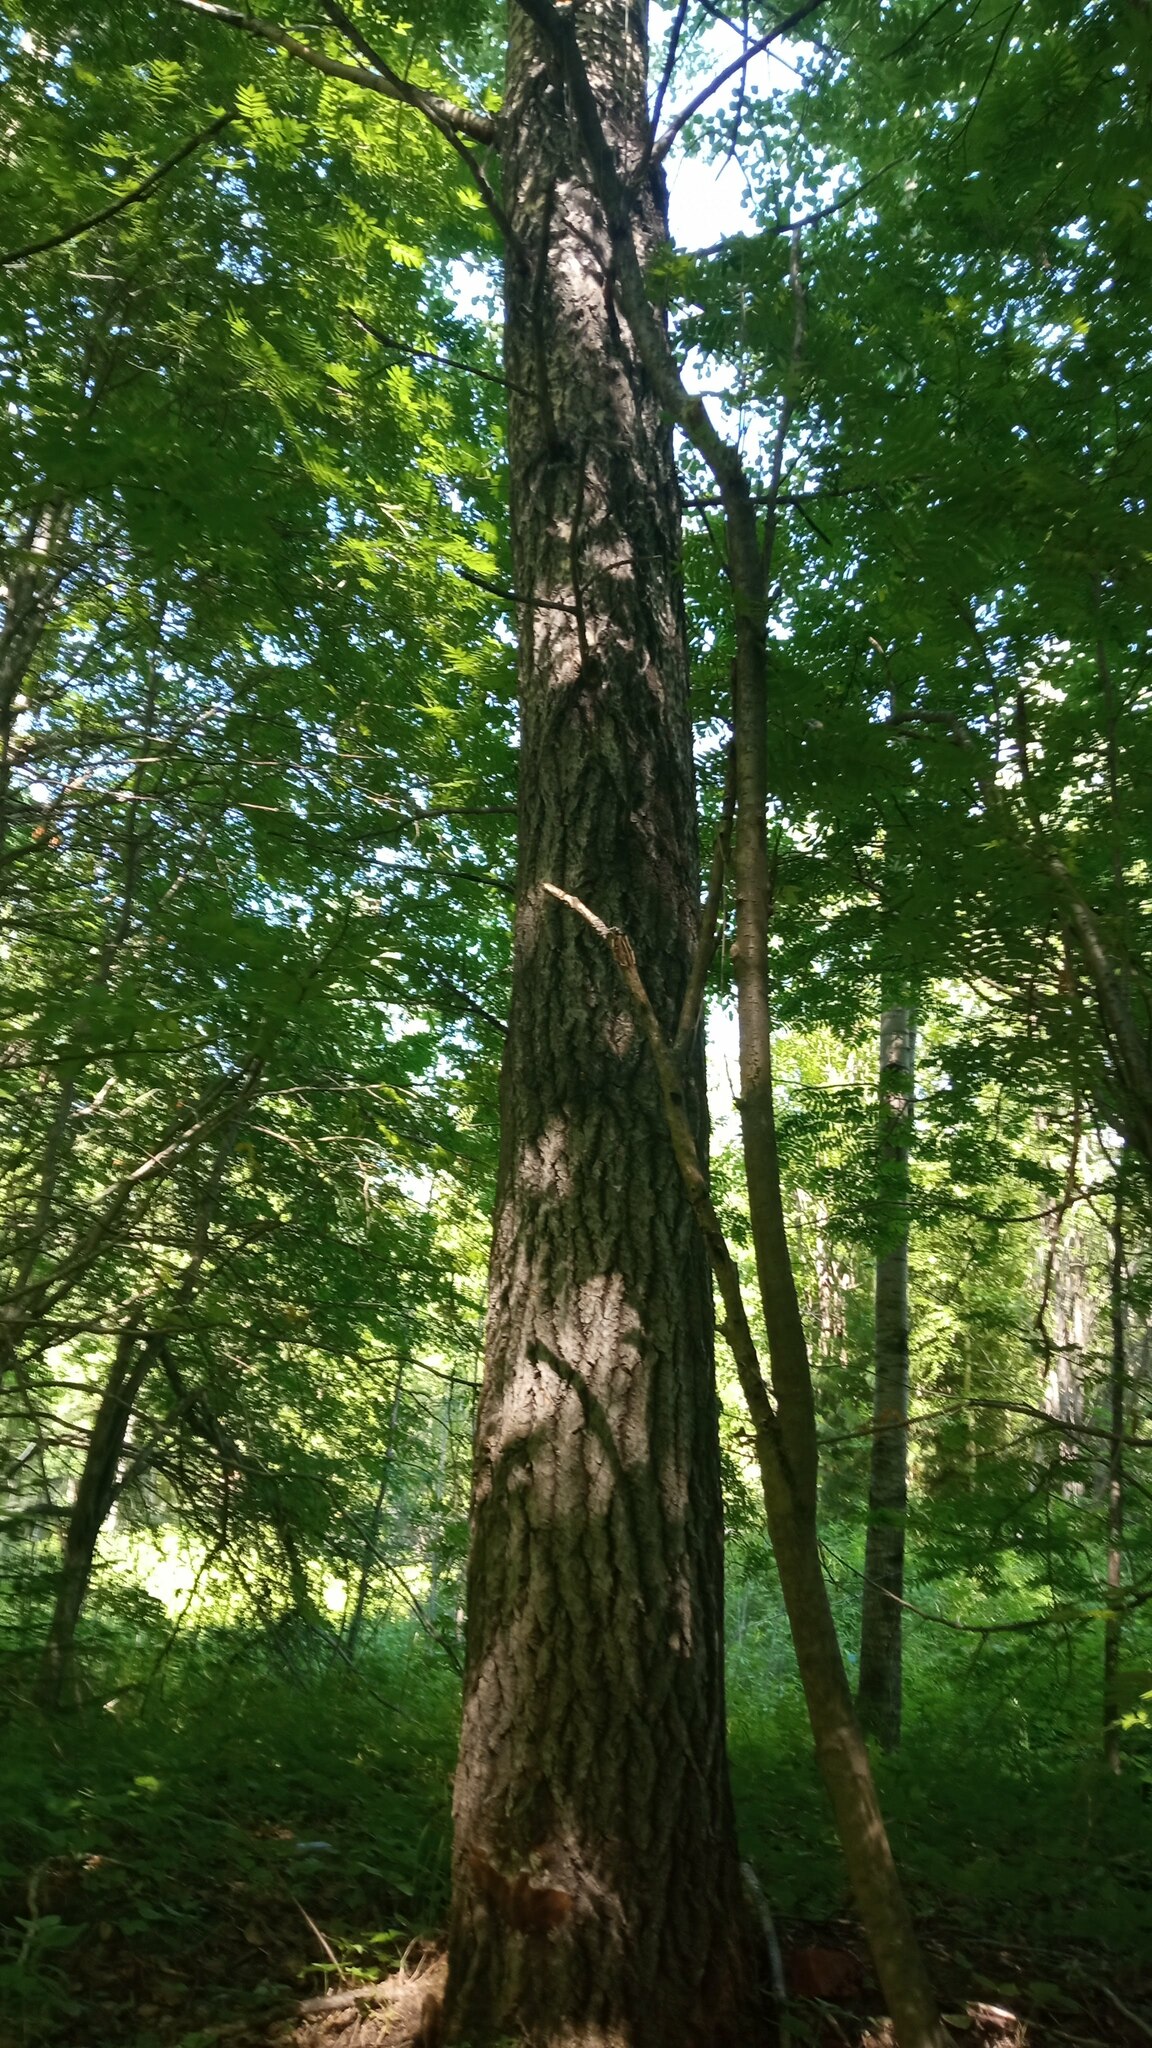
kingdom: Fungi
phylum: Basidiomycota
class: Agaricomycetes
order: Hymenochaetales
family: Hymenochaetaceae
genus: Phellinus
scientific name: Phellinus tremulae
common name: Aspen bracket
